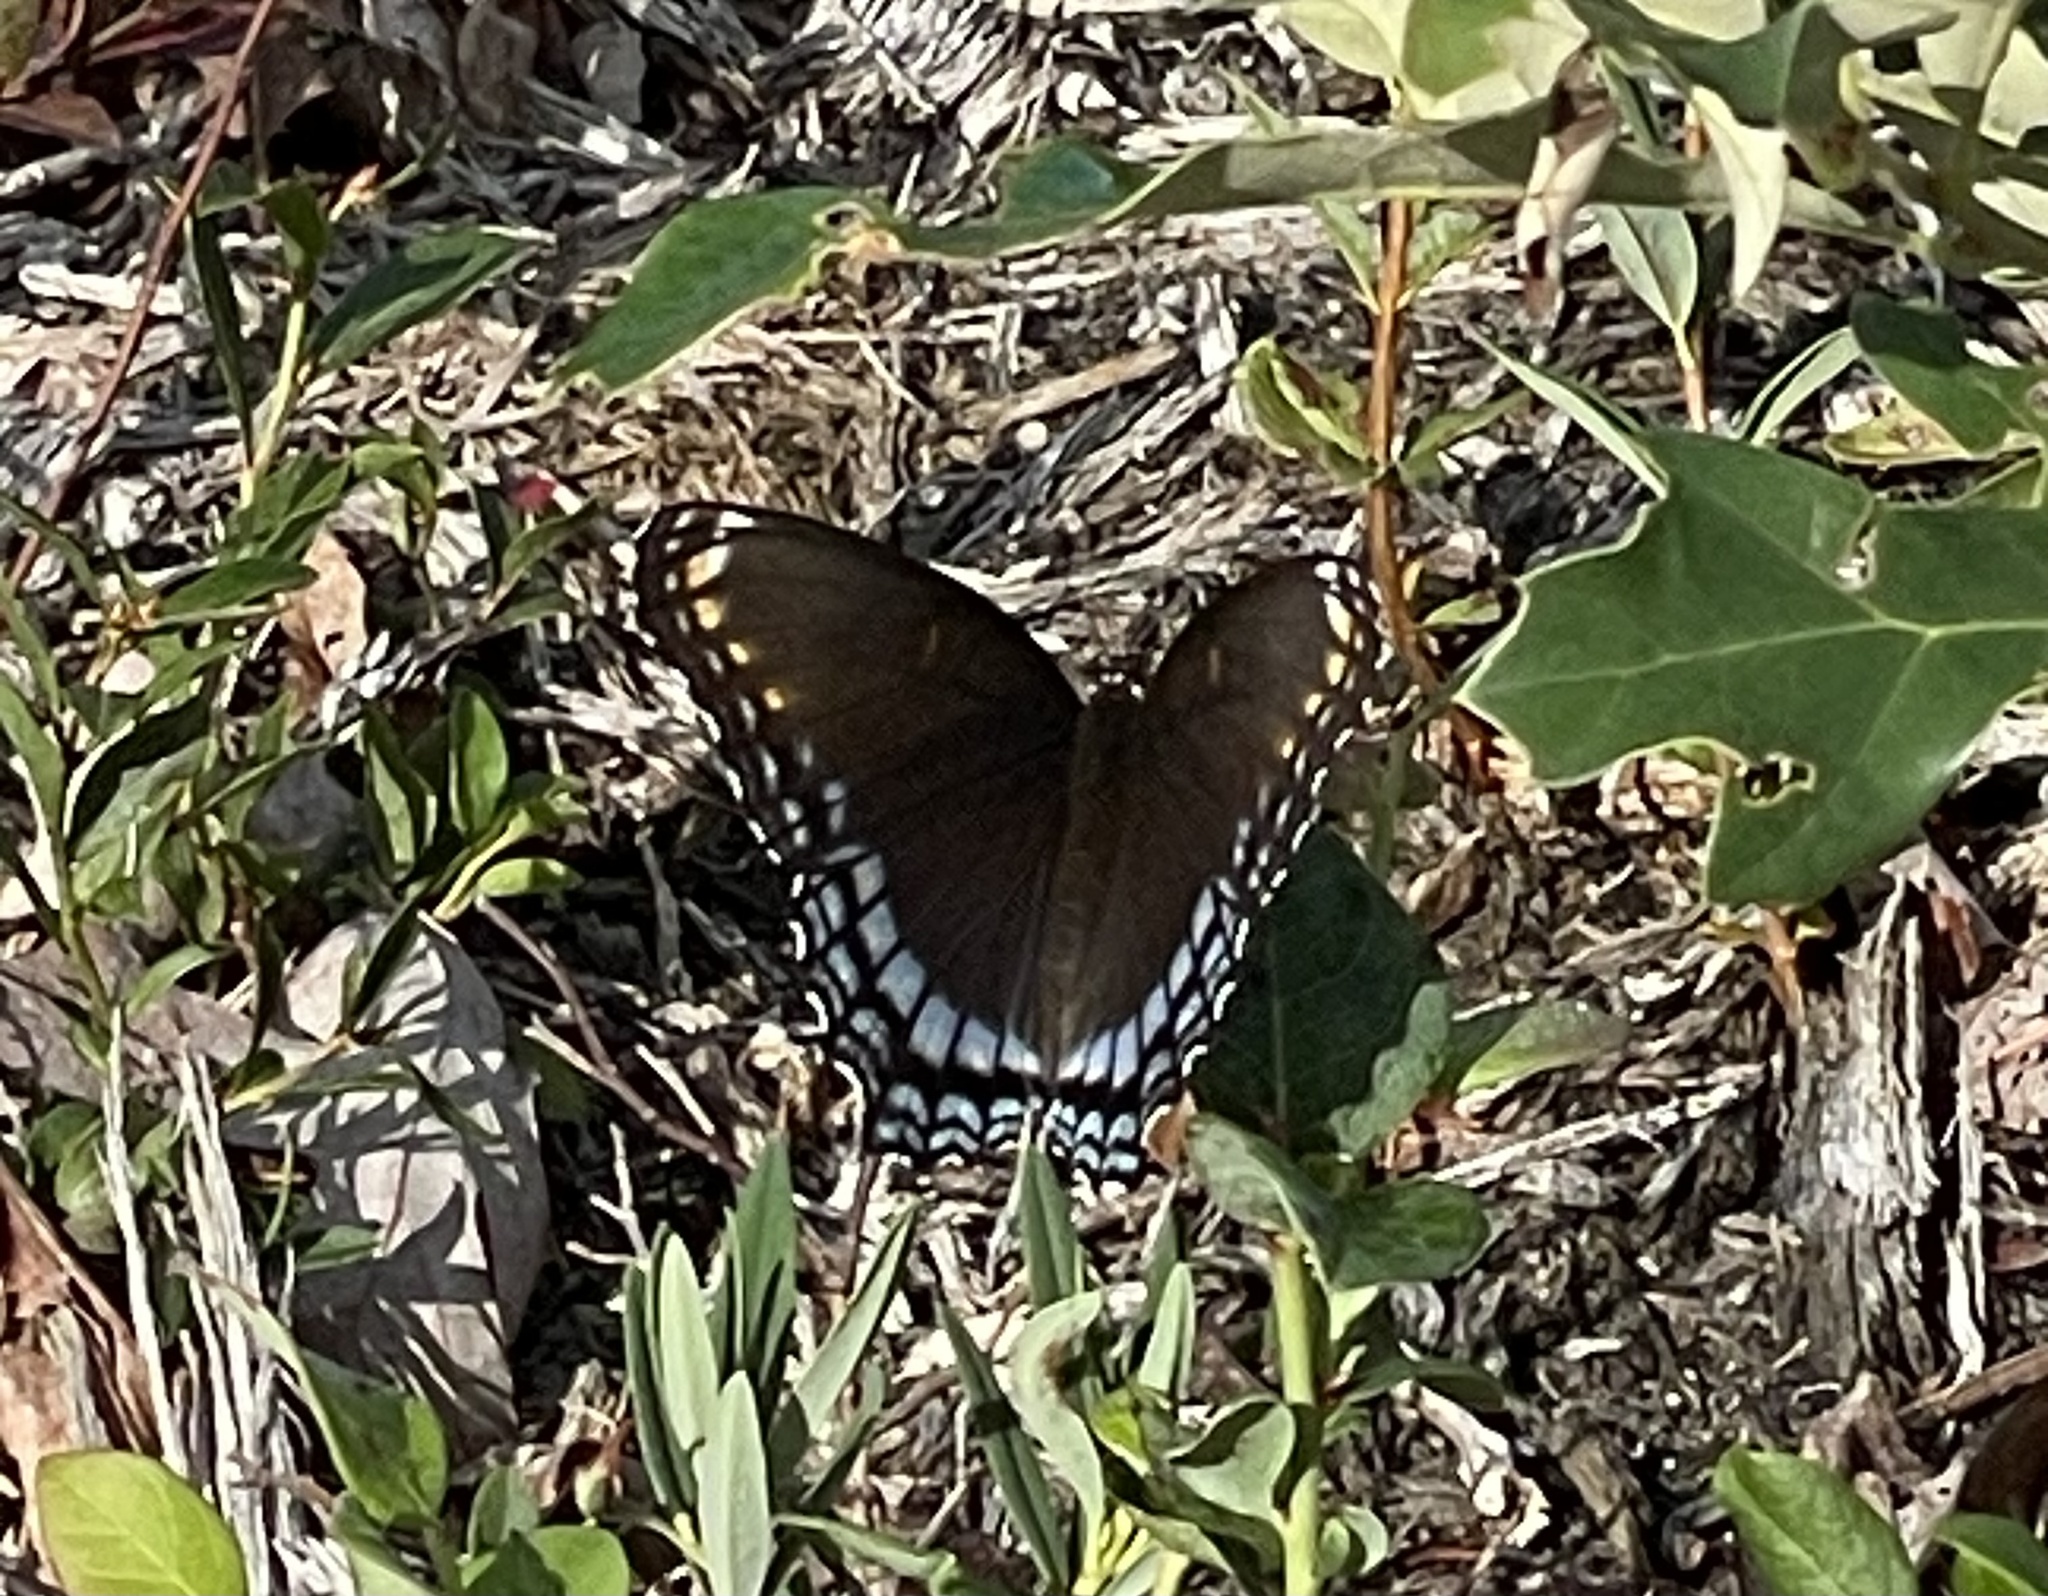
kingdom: Animalia
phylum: Arthropoda
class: Insecta
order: Lepidoptera
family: Nymphalidae
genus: Limenitis
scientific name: Limenitis astyanax
